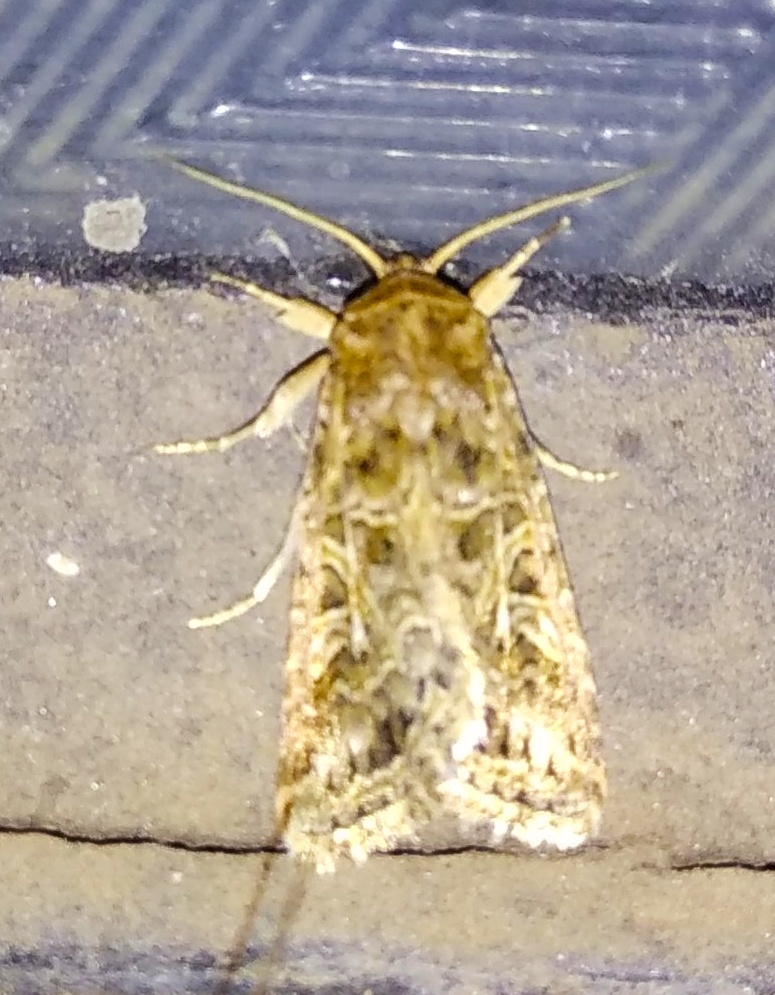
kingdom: Animalia
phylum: Arthropoda
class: Insecta
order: Lepidoptera
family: Noctuidae
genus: Spodoptera
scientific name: Spodoptera litura
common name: Asian cotton leafworm
